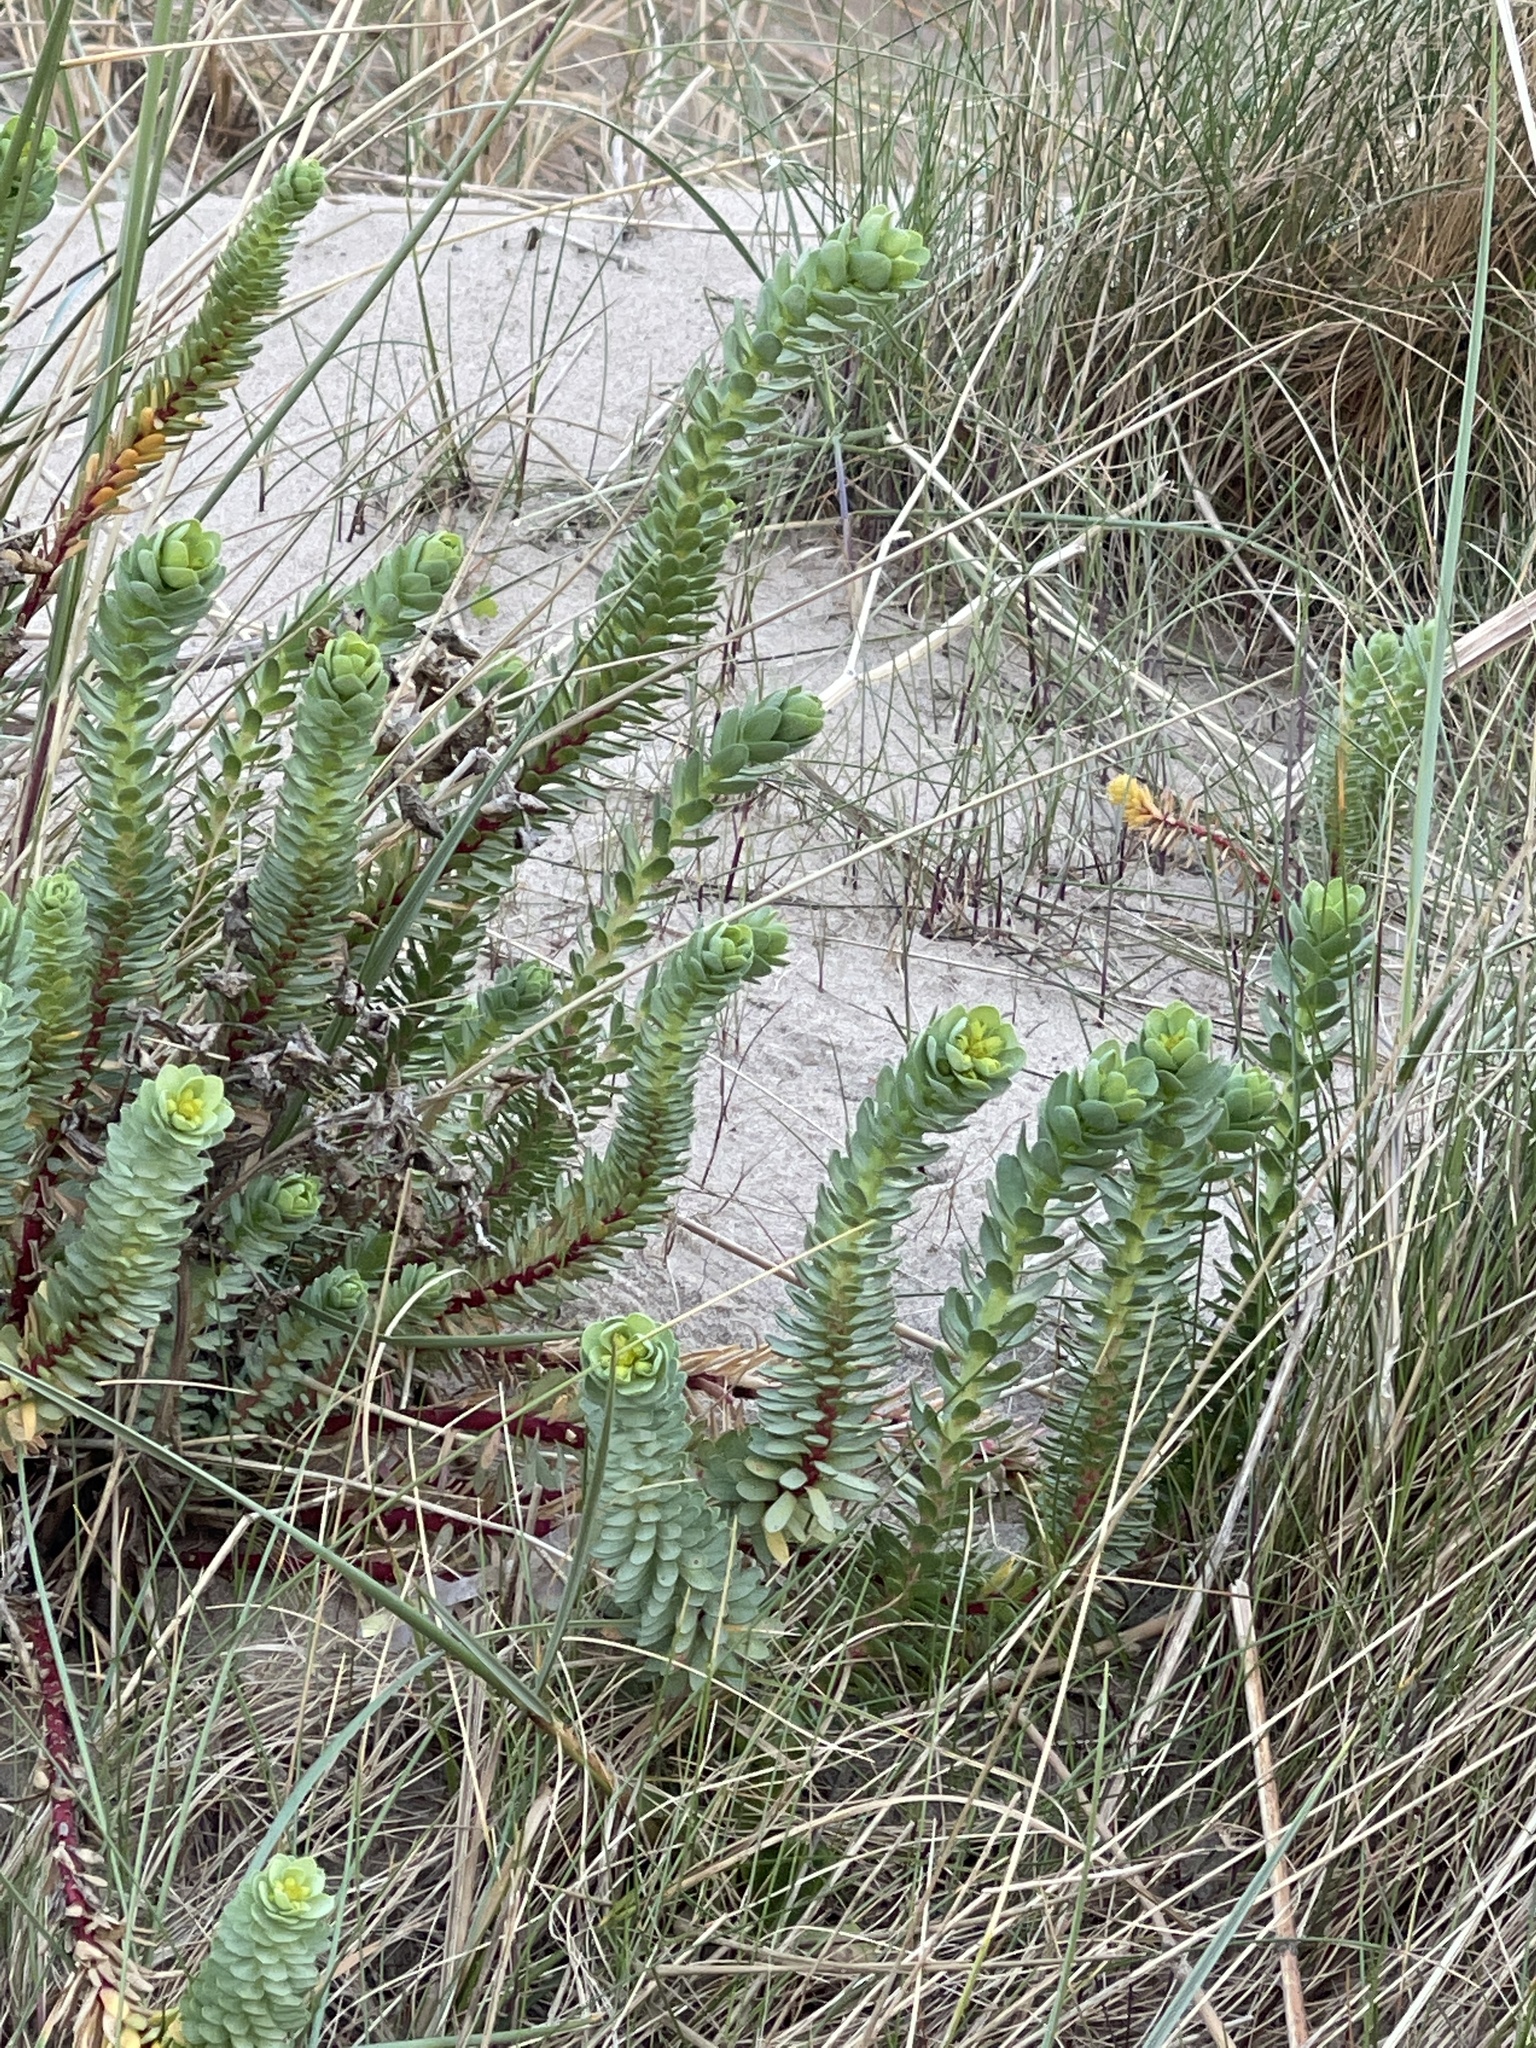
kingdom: Plantae
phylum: Tracheophyta
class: Magnoliopsida
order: Malpighiales
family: Euphorbiaceae
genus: Euphorbia
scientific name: Euphorbia paralias
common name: Sea spurge
